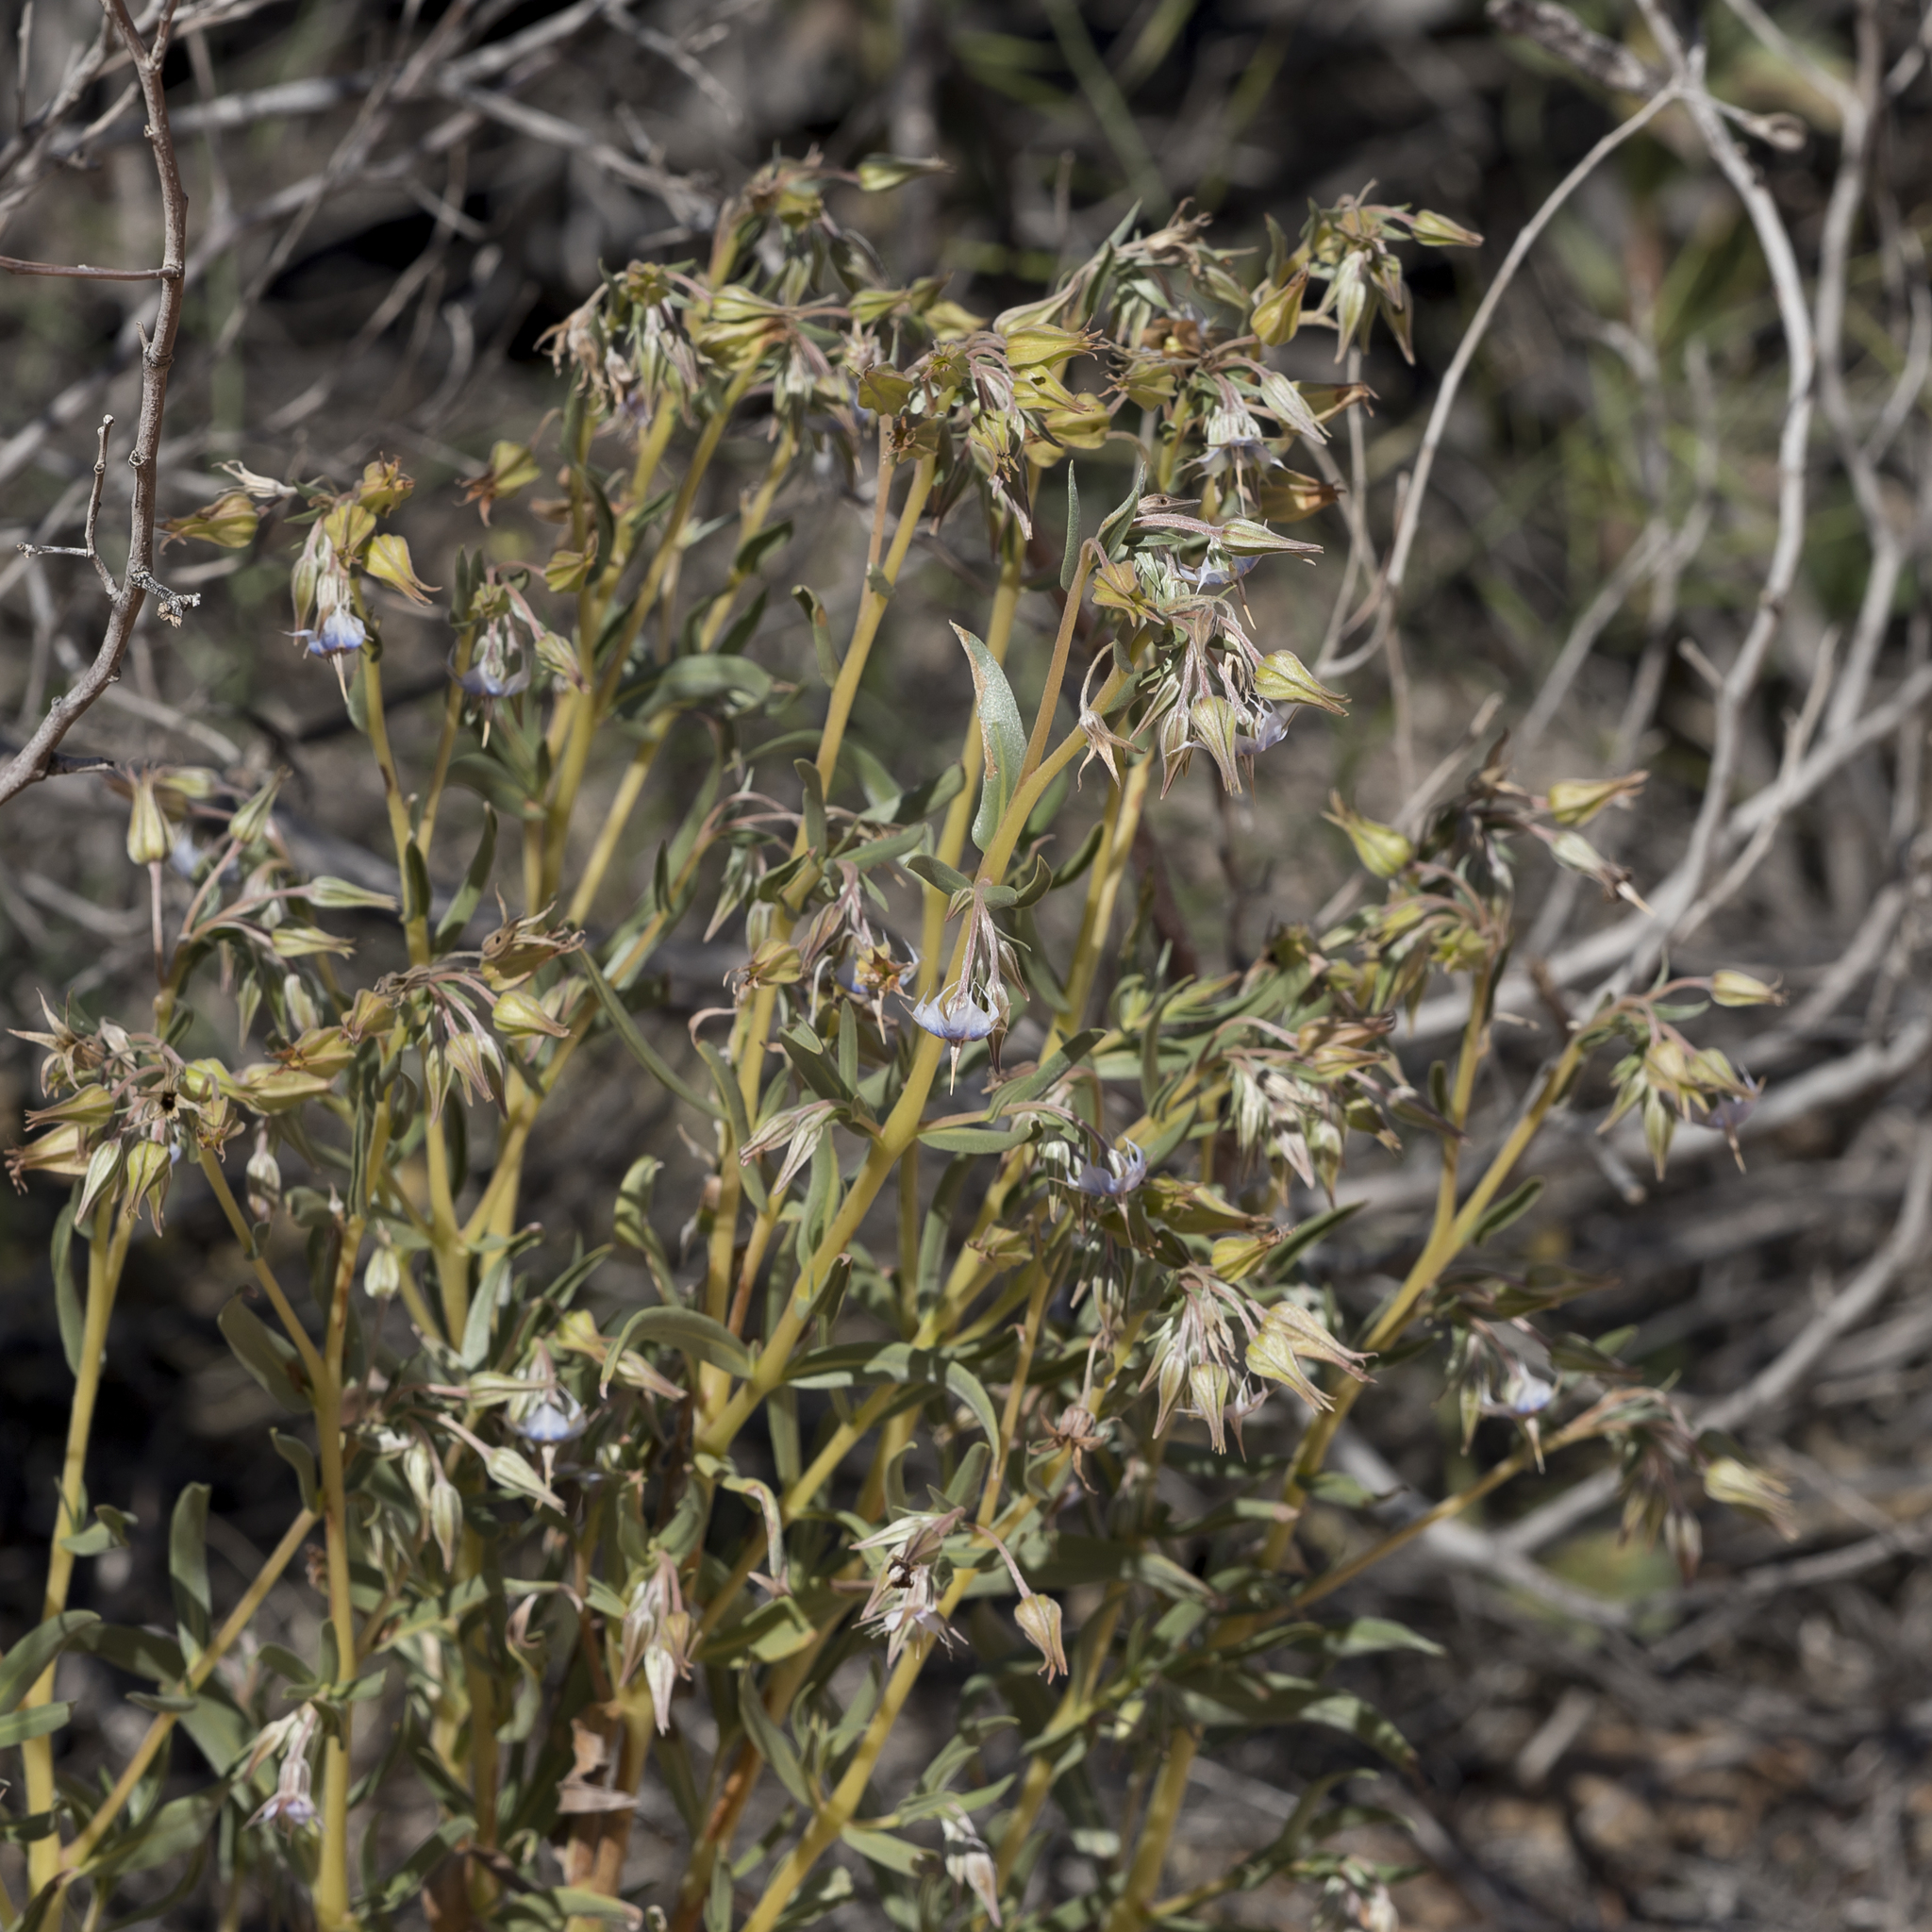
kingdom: Plantae
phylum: Tracheophyta
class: Magnoliopsida
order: Boraginales
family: Boraginaceae
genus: Trichodesma
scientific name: Trichodesma zeylanicum
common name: Camelbush
